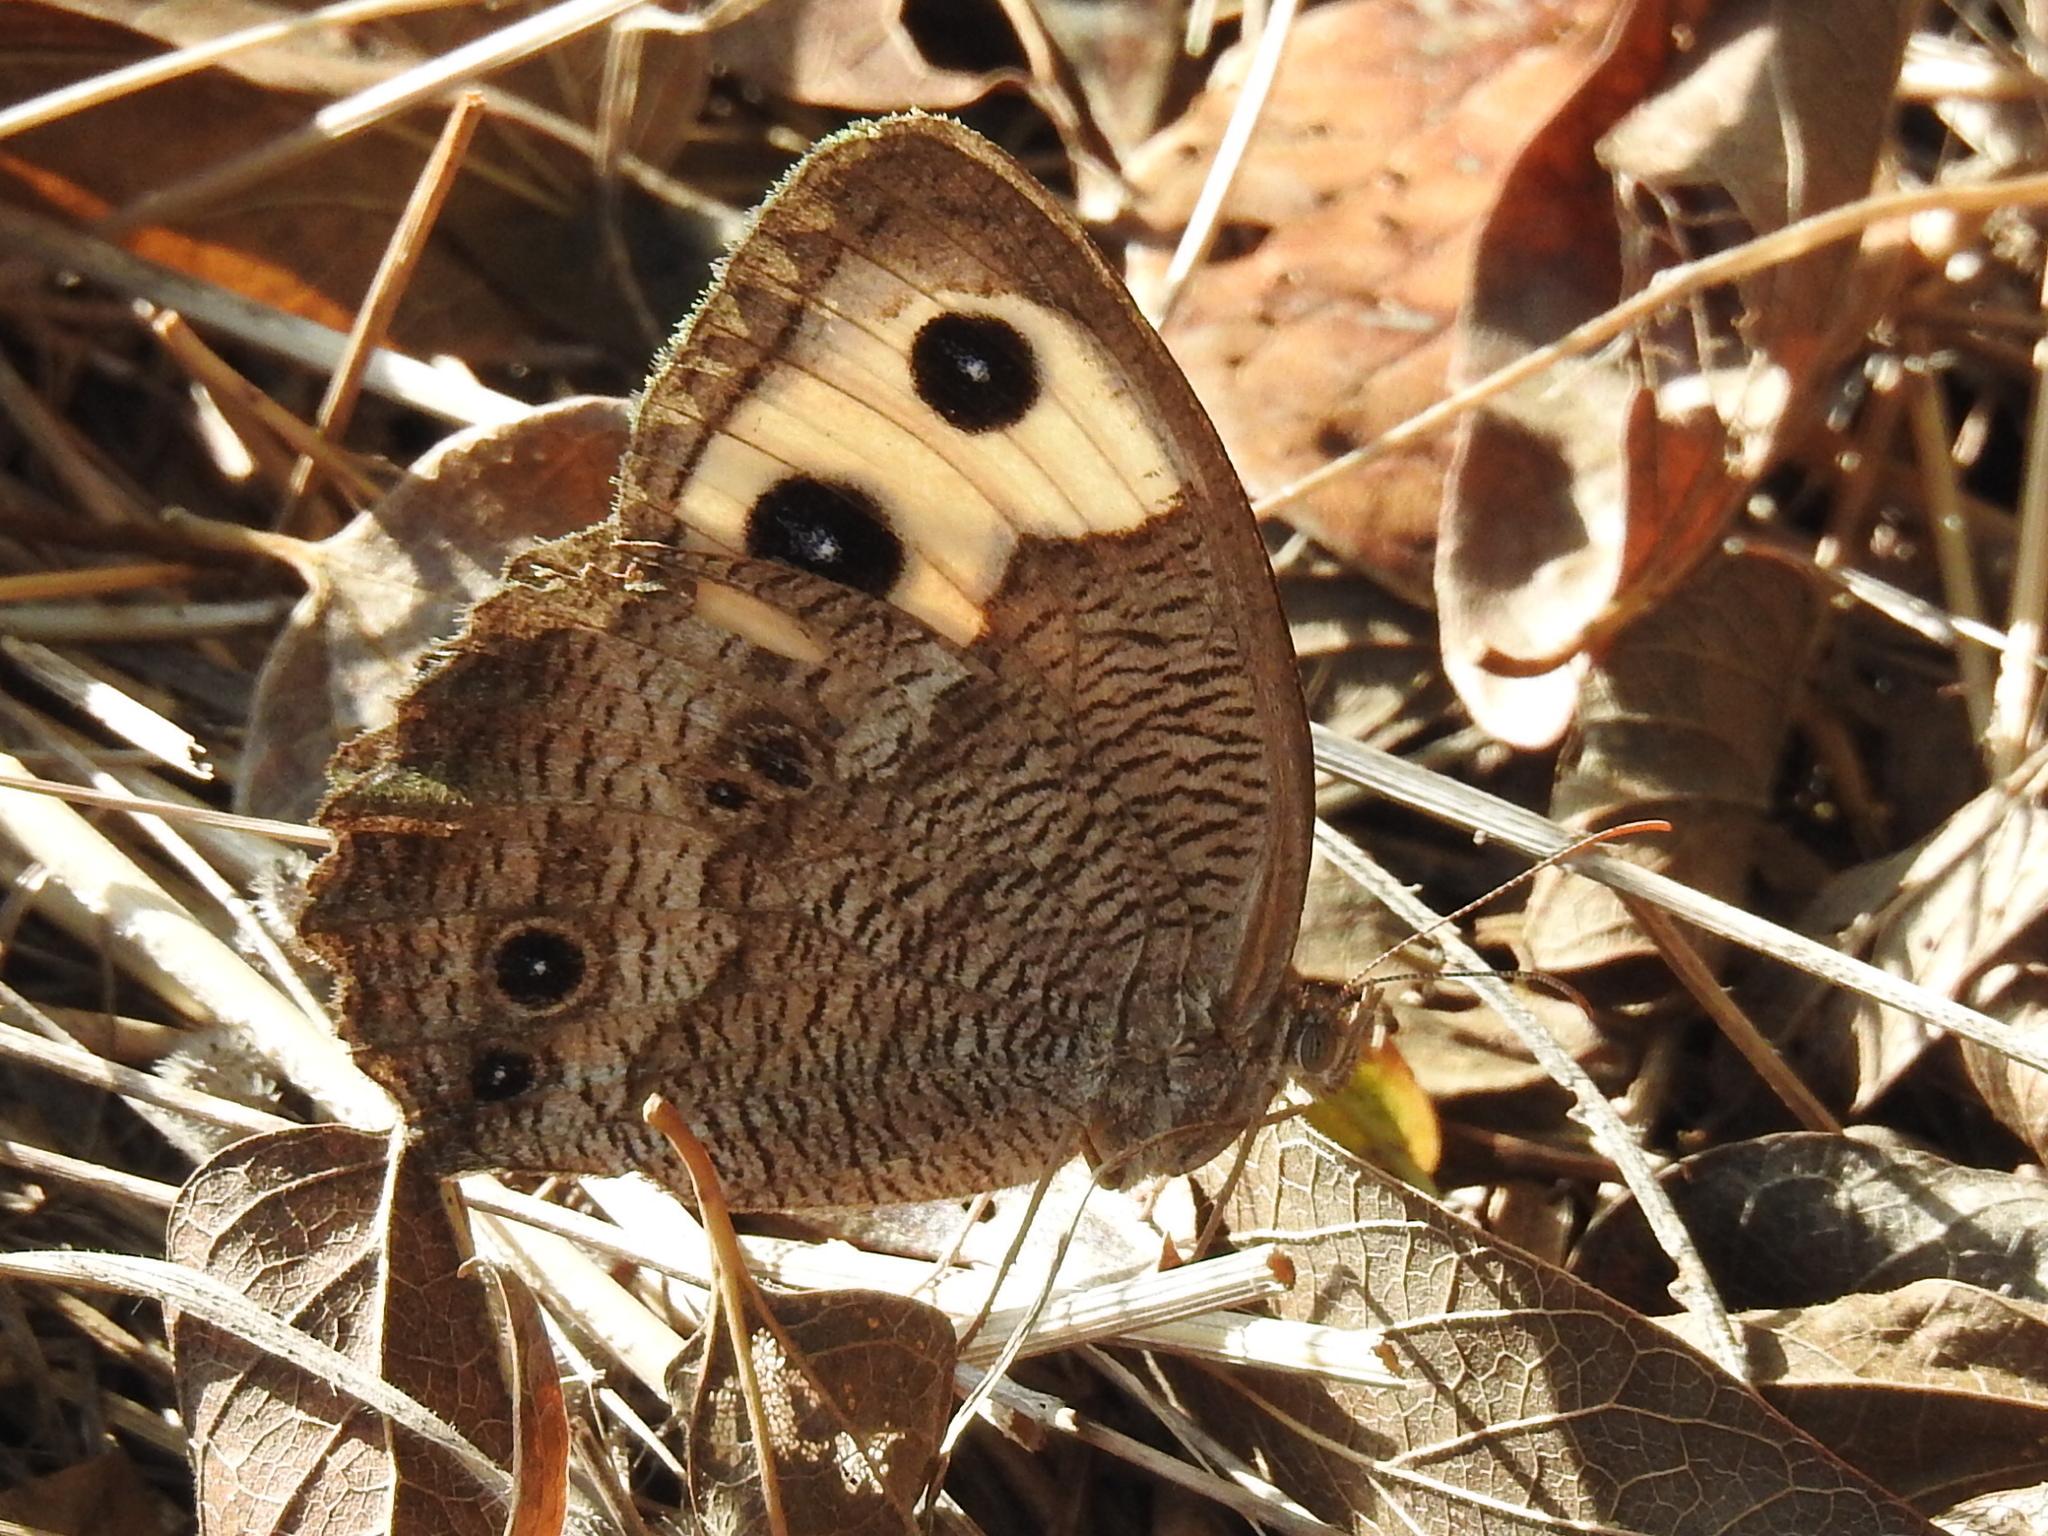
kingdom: Animalia
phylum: Arthropoda
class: Insecta
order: Lepidoptera
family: Nymphalidae
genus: Cercyonis
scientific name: Cercyonis pegala
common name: Common wood-nymph
